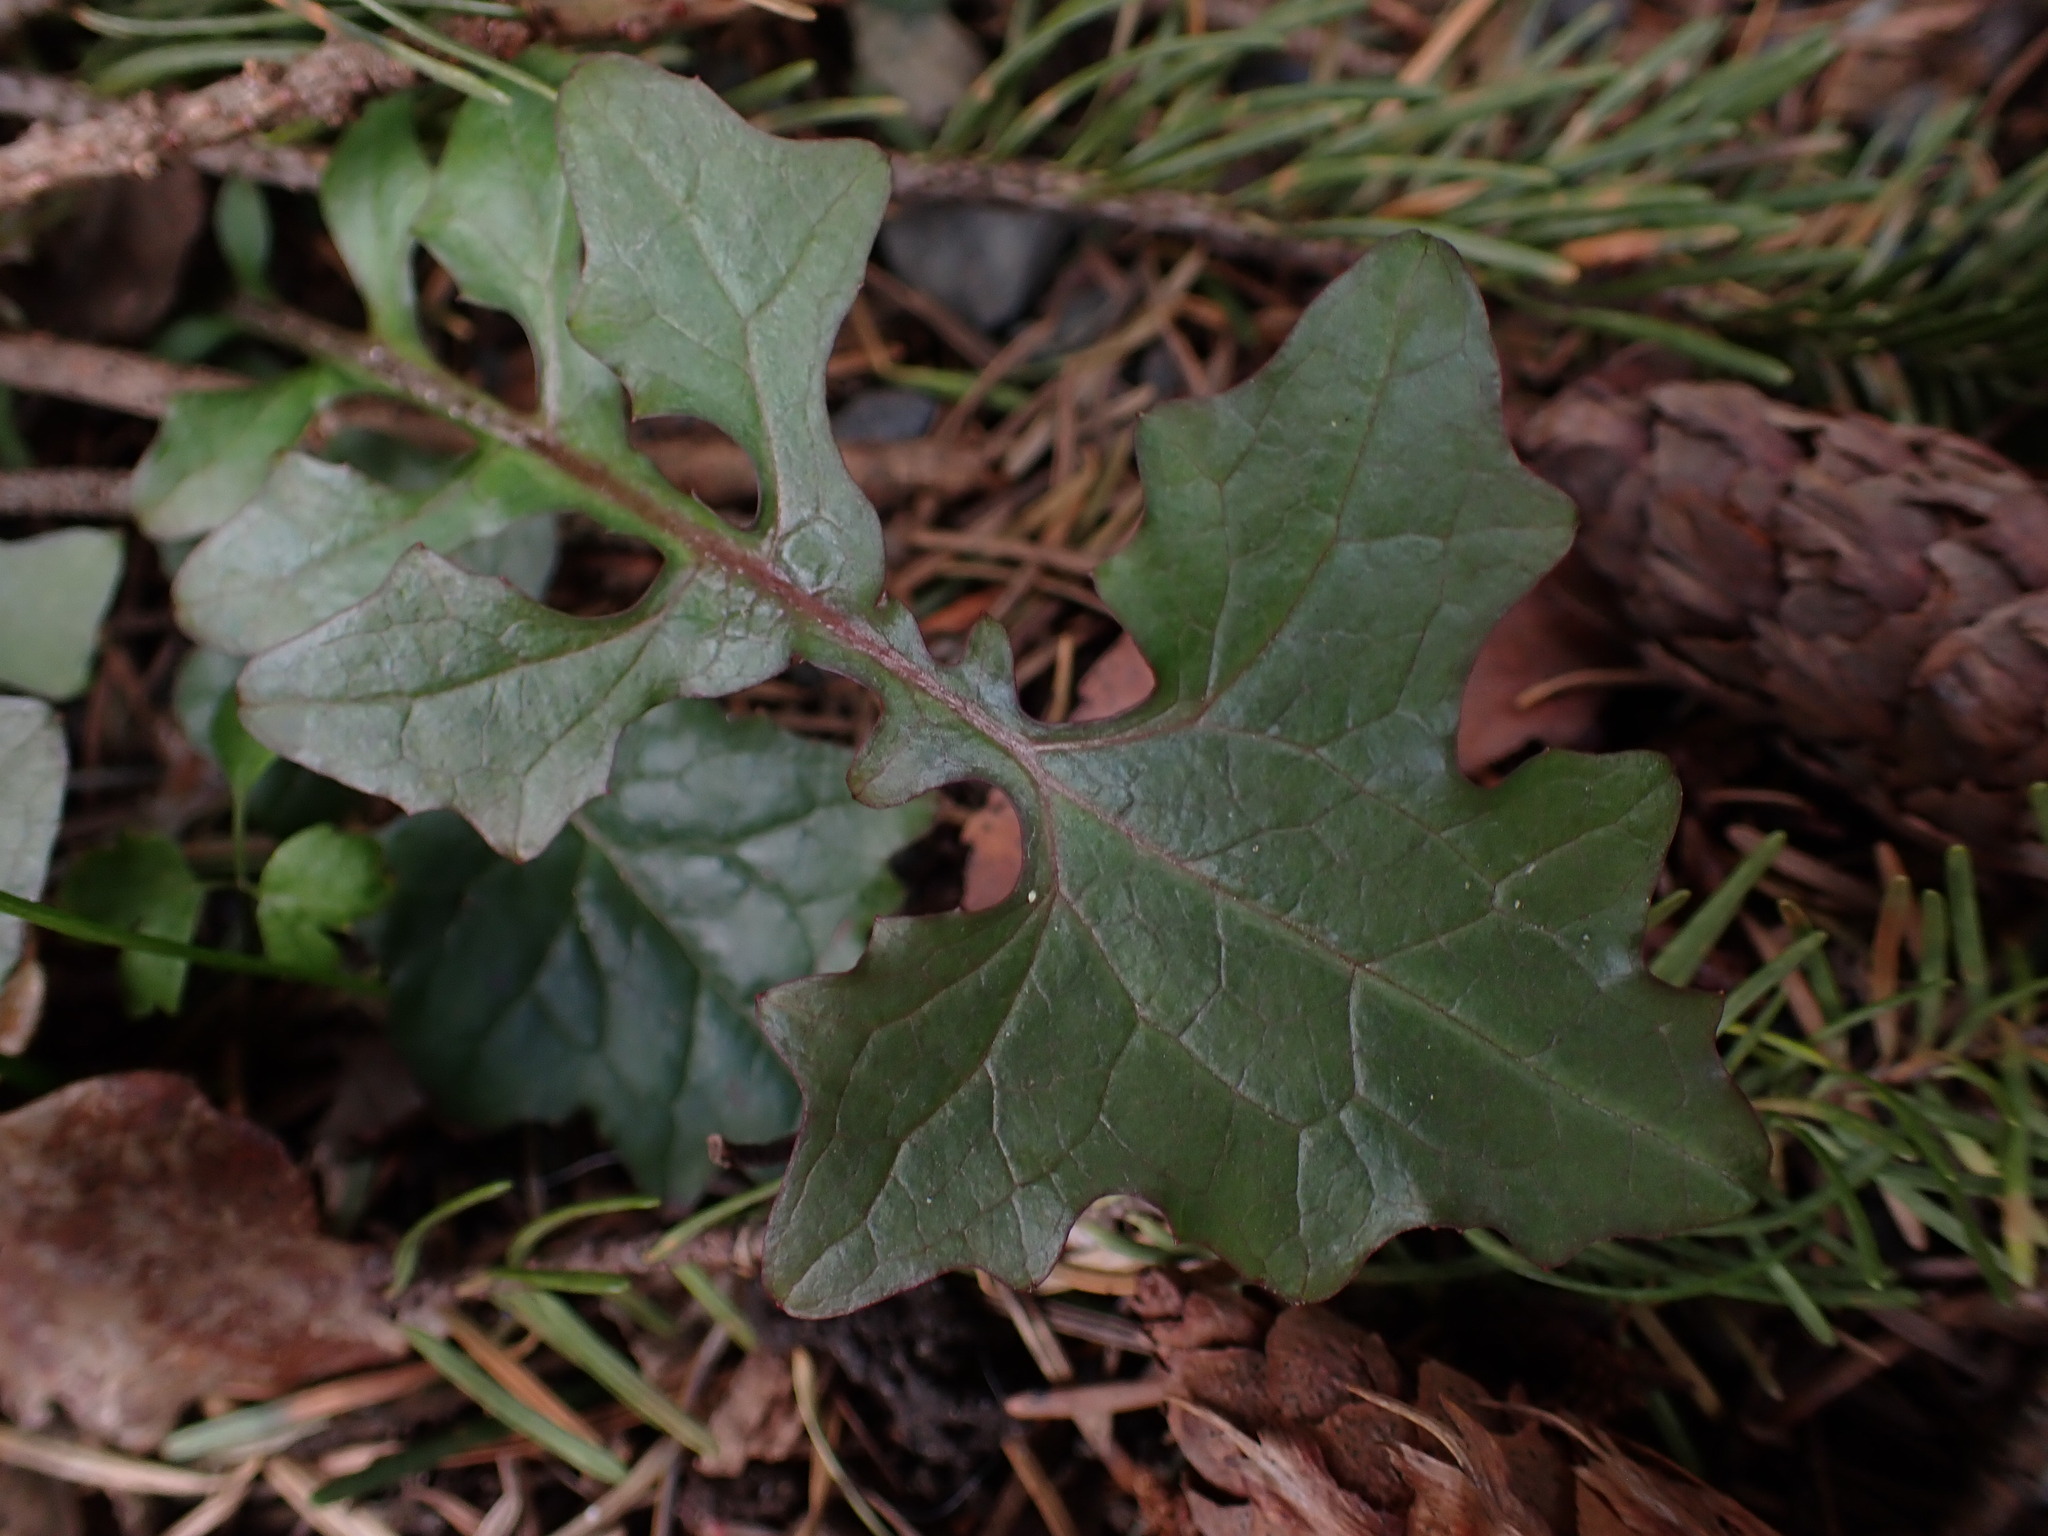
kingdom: Plantae
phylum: Tracheophyta
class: Magnoliopsida
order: Asterales
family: Asteraceae
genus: Mycelis
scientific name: Mycelis muralis
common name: Wall lettuce
